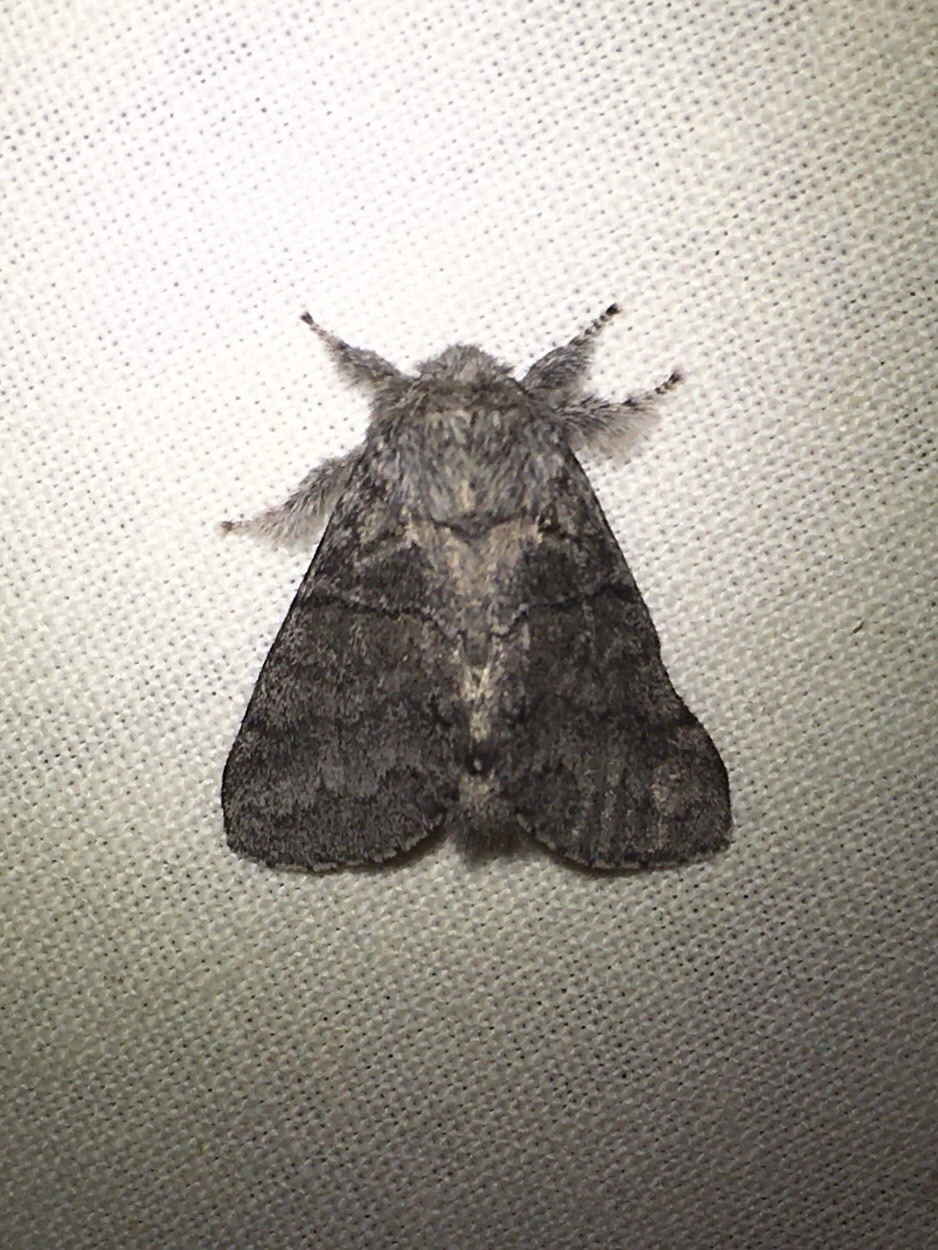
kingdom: Animalia
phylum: Arthropoda
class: Insecta
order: Lepidoptera
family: Notodontidae
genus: Gluphisia
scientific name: Gluphisia septentrionis
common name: Common gluphisia
